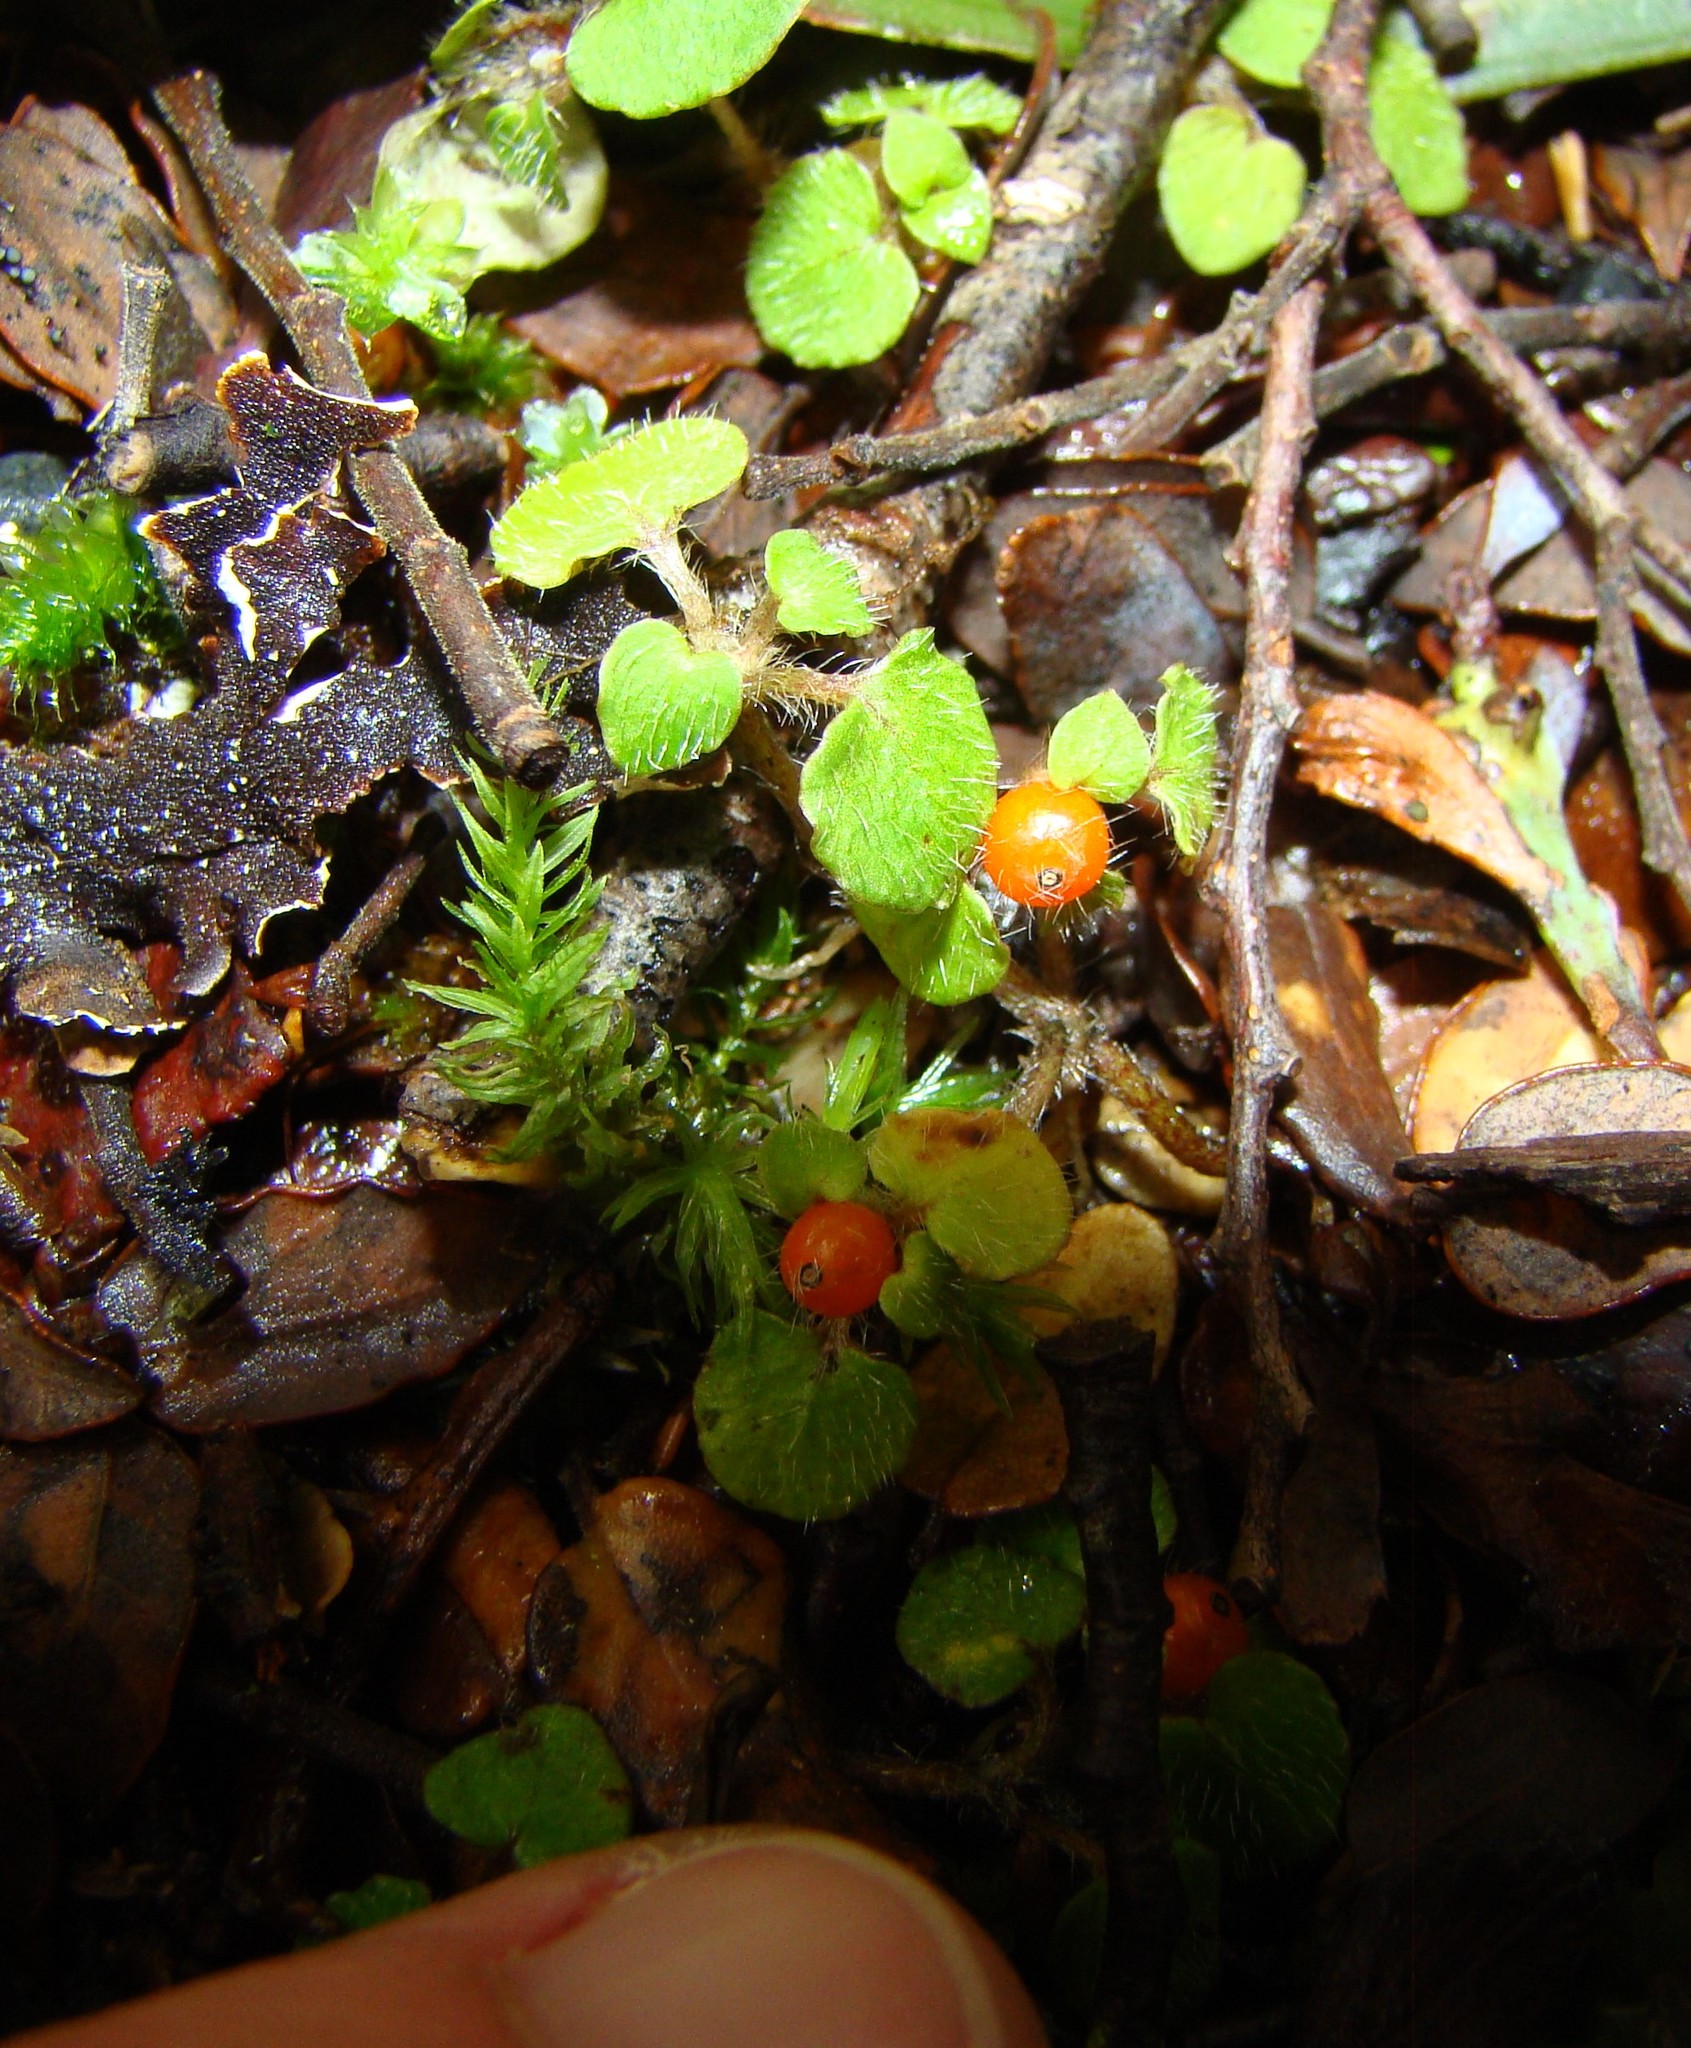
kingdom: Plantae
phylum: Tracheophyta
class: Magnoliopsida
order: Gentianales
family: Rubiaceae
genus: Nertera
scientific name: Nertera villosa
